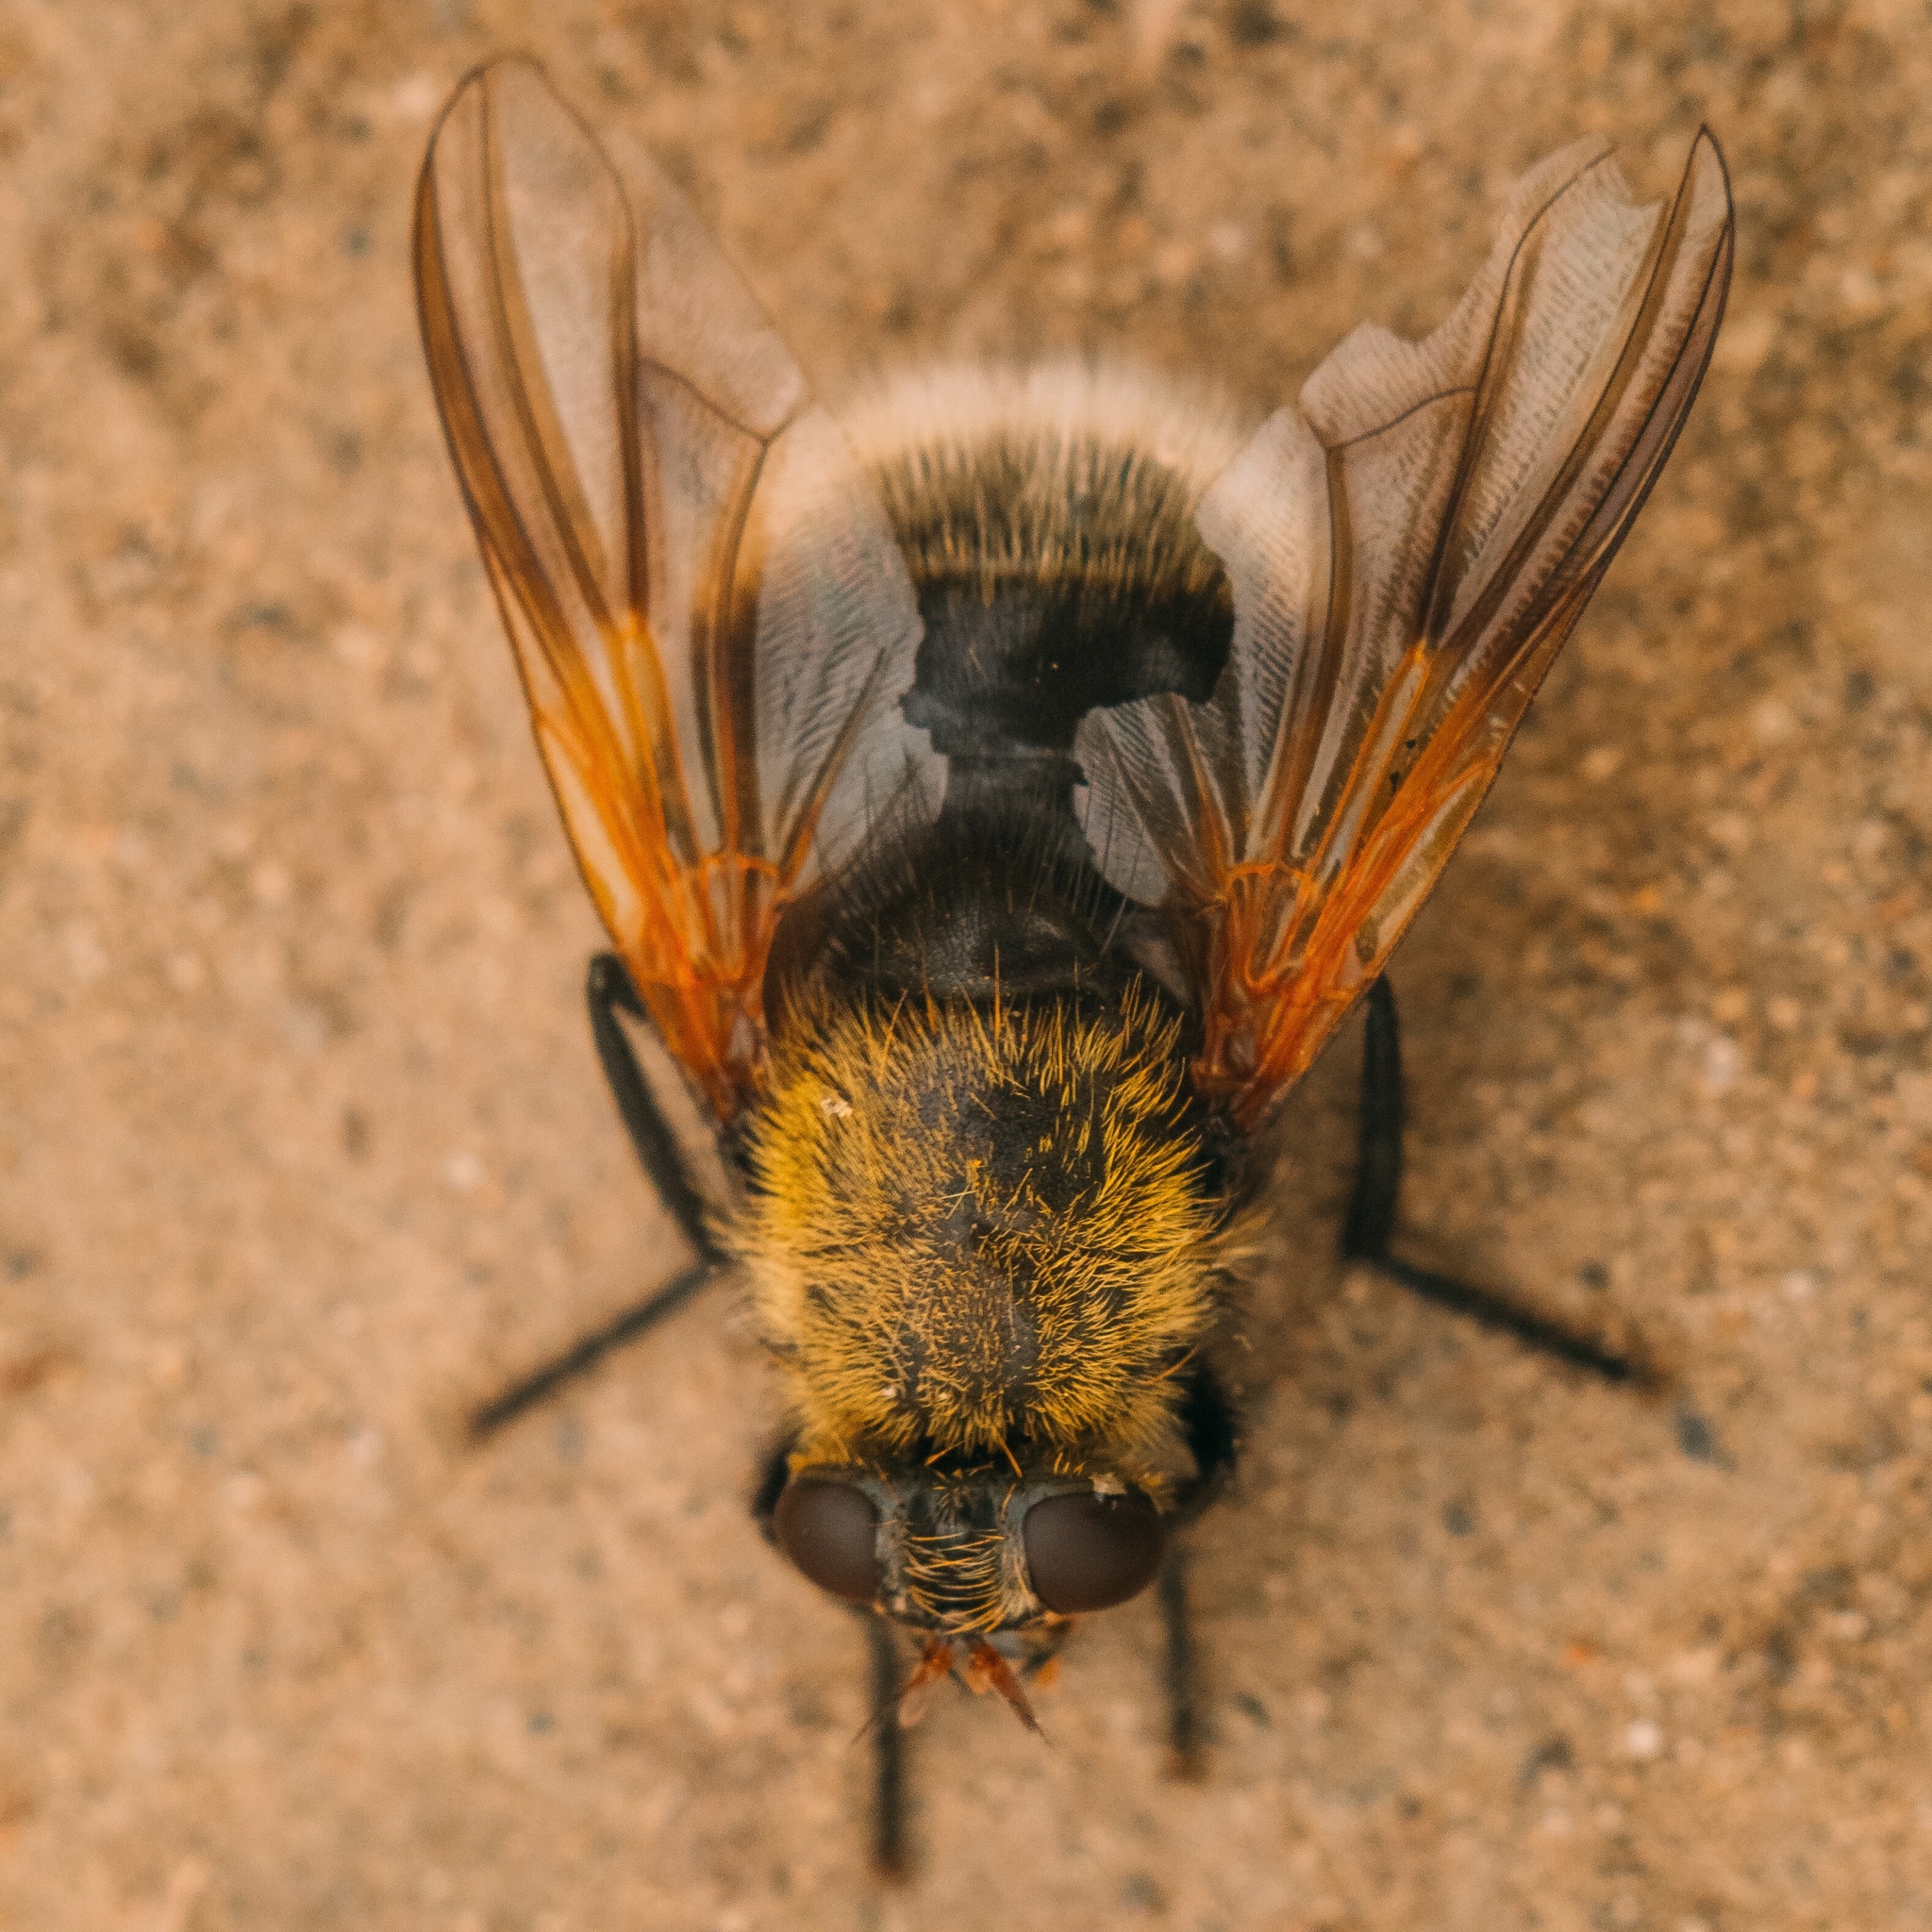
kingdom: Animalia
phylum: Arthropoda
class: Insecta
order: Diptera
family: Muscidae
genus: Mesembrina
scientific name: Mesembrina mystacea
